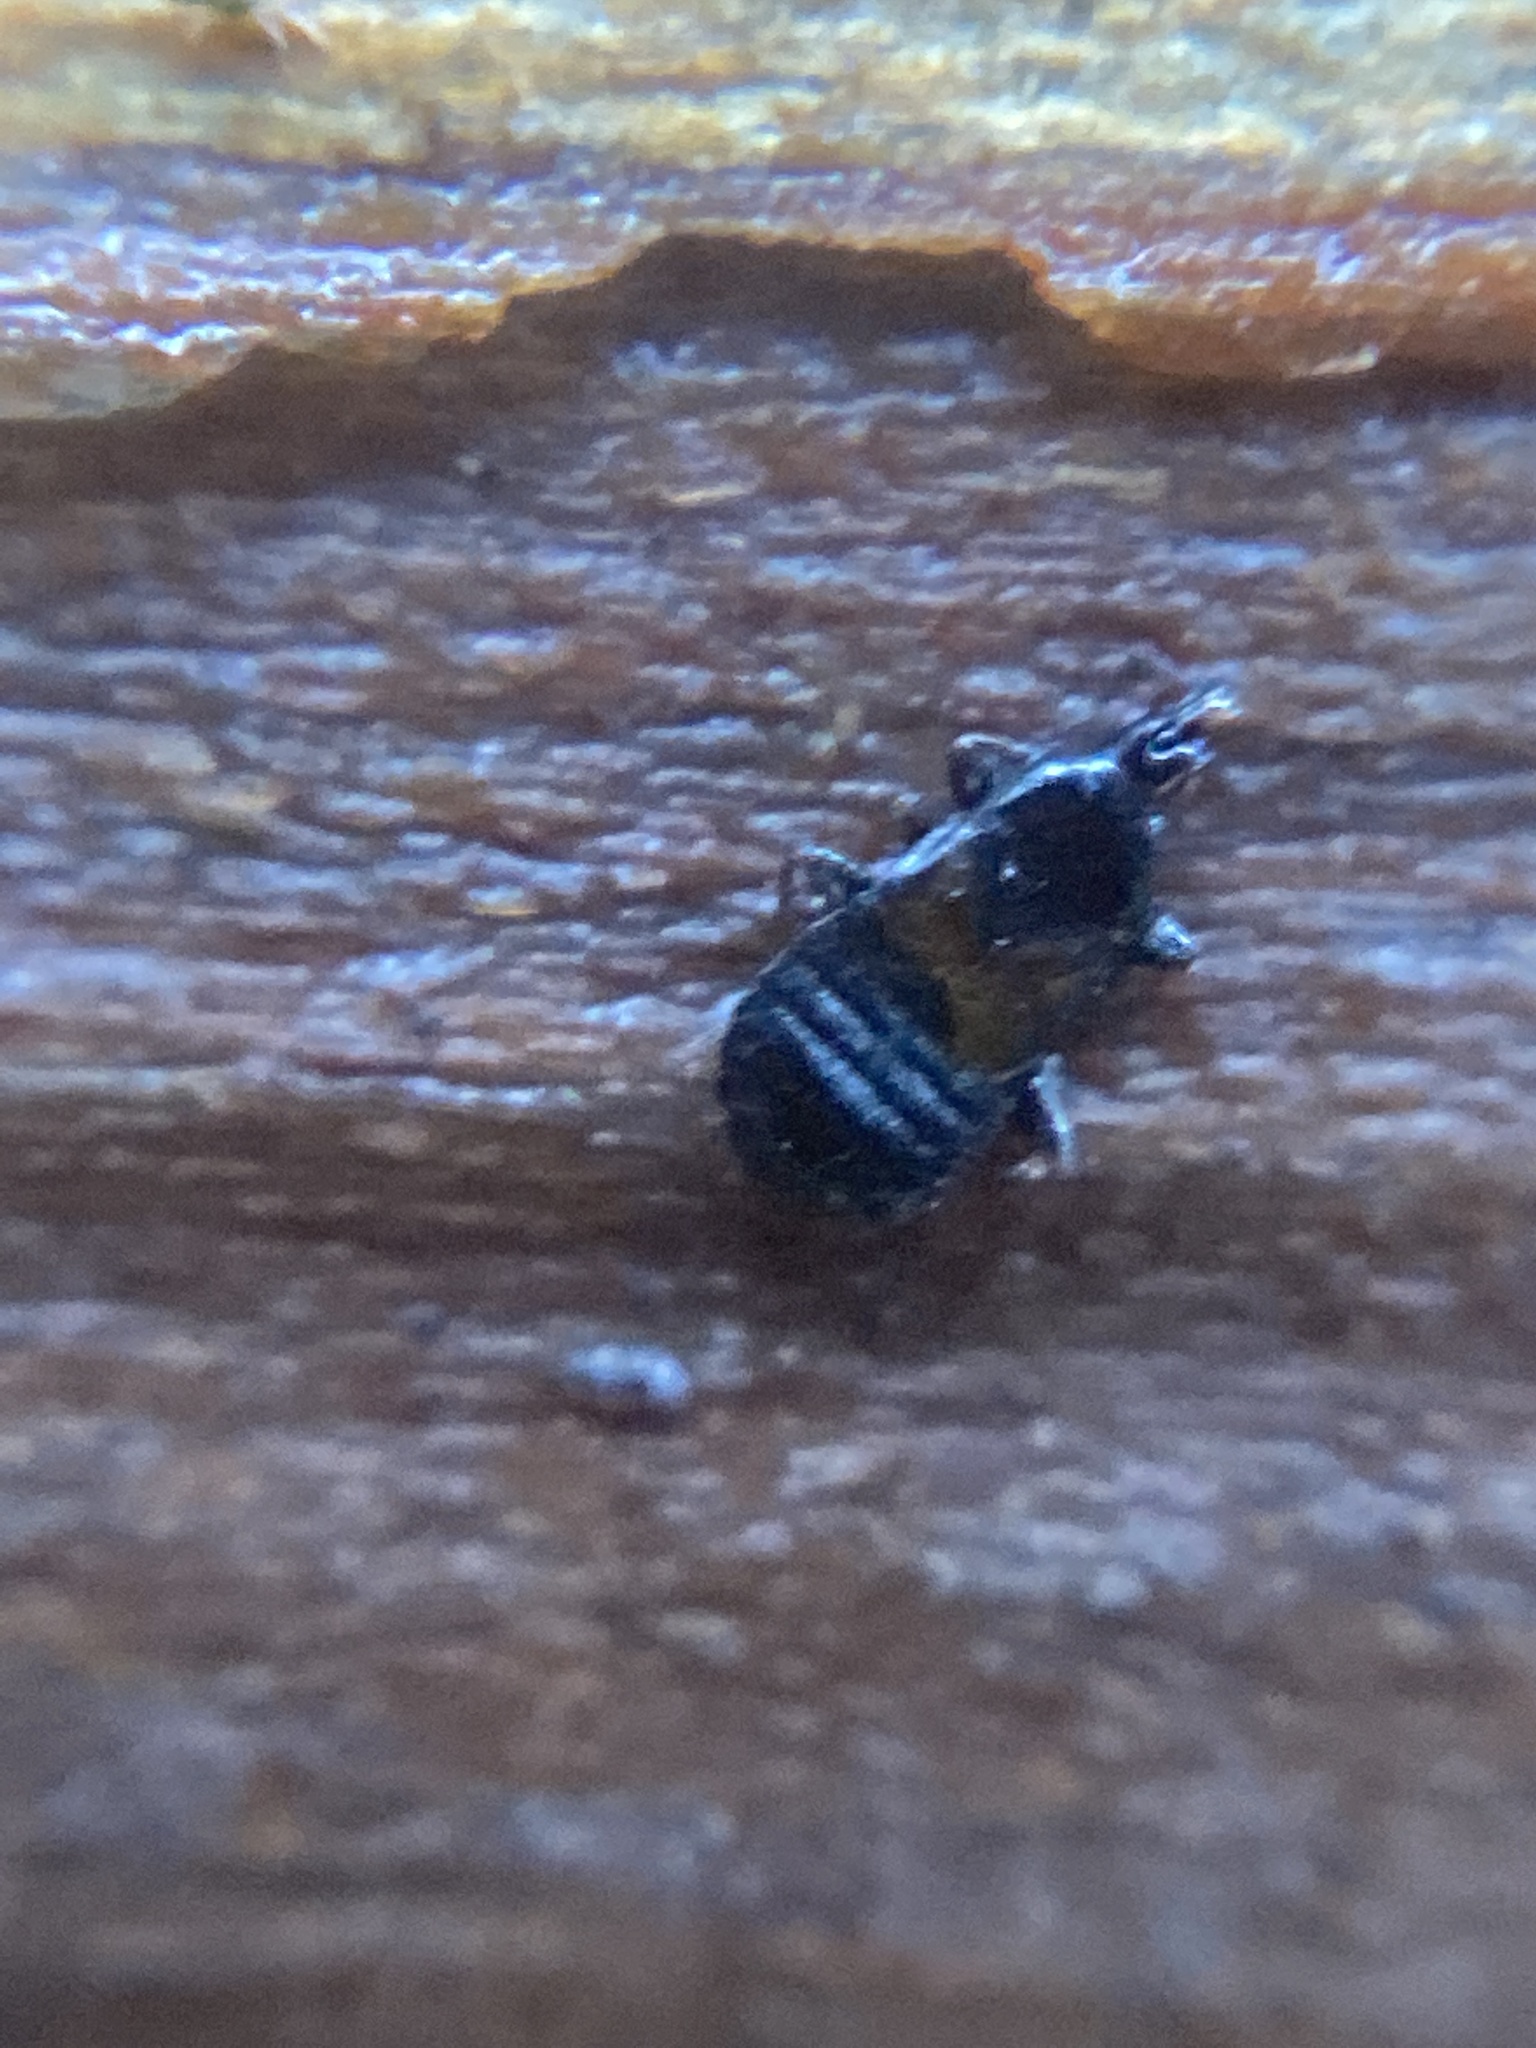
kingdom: Animalia
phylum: Arthropoda
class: Insecta
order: Hemiptera
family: Anthocoridae
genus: Xylocoris
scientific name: Xylocoris cursitans
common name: Minute pirate bug
